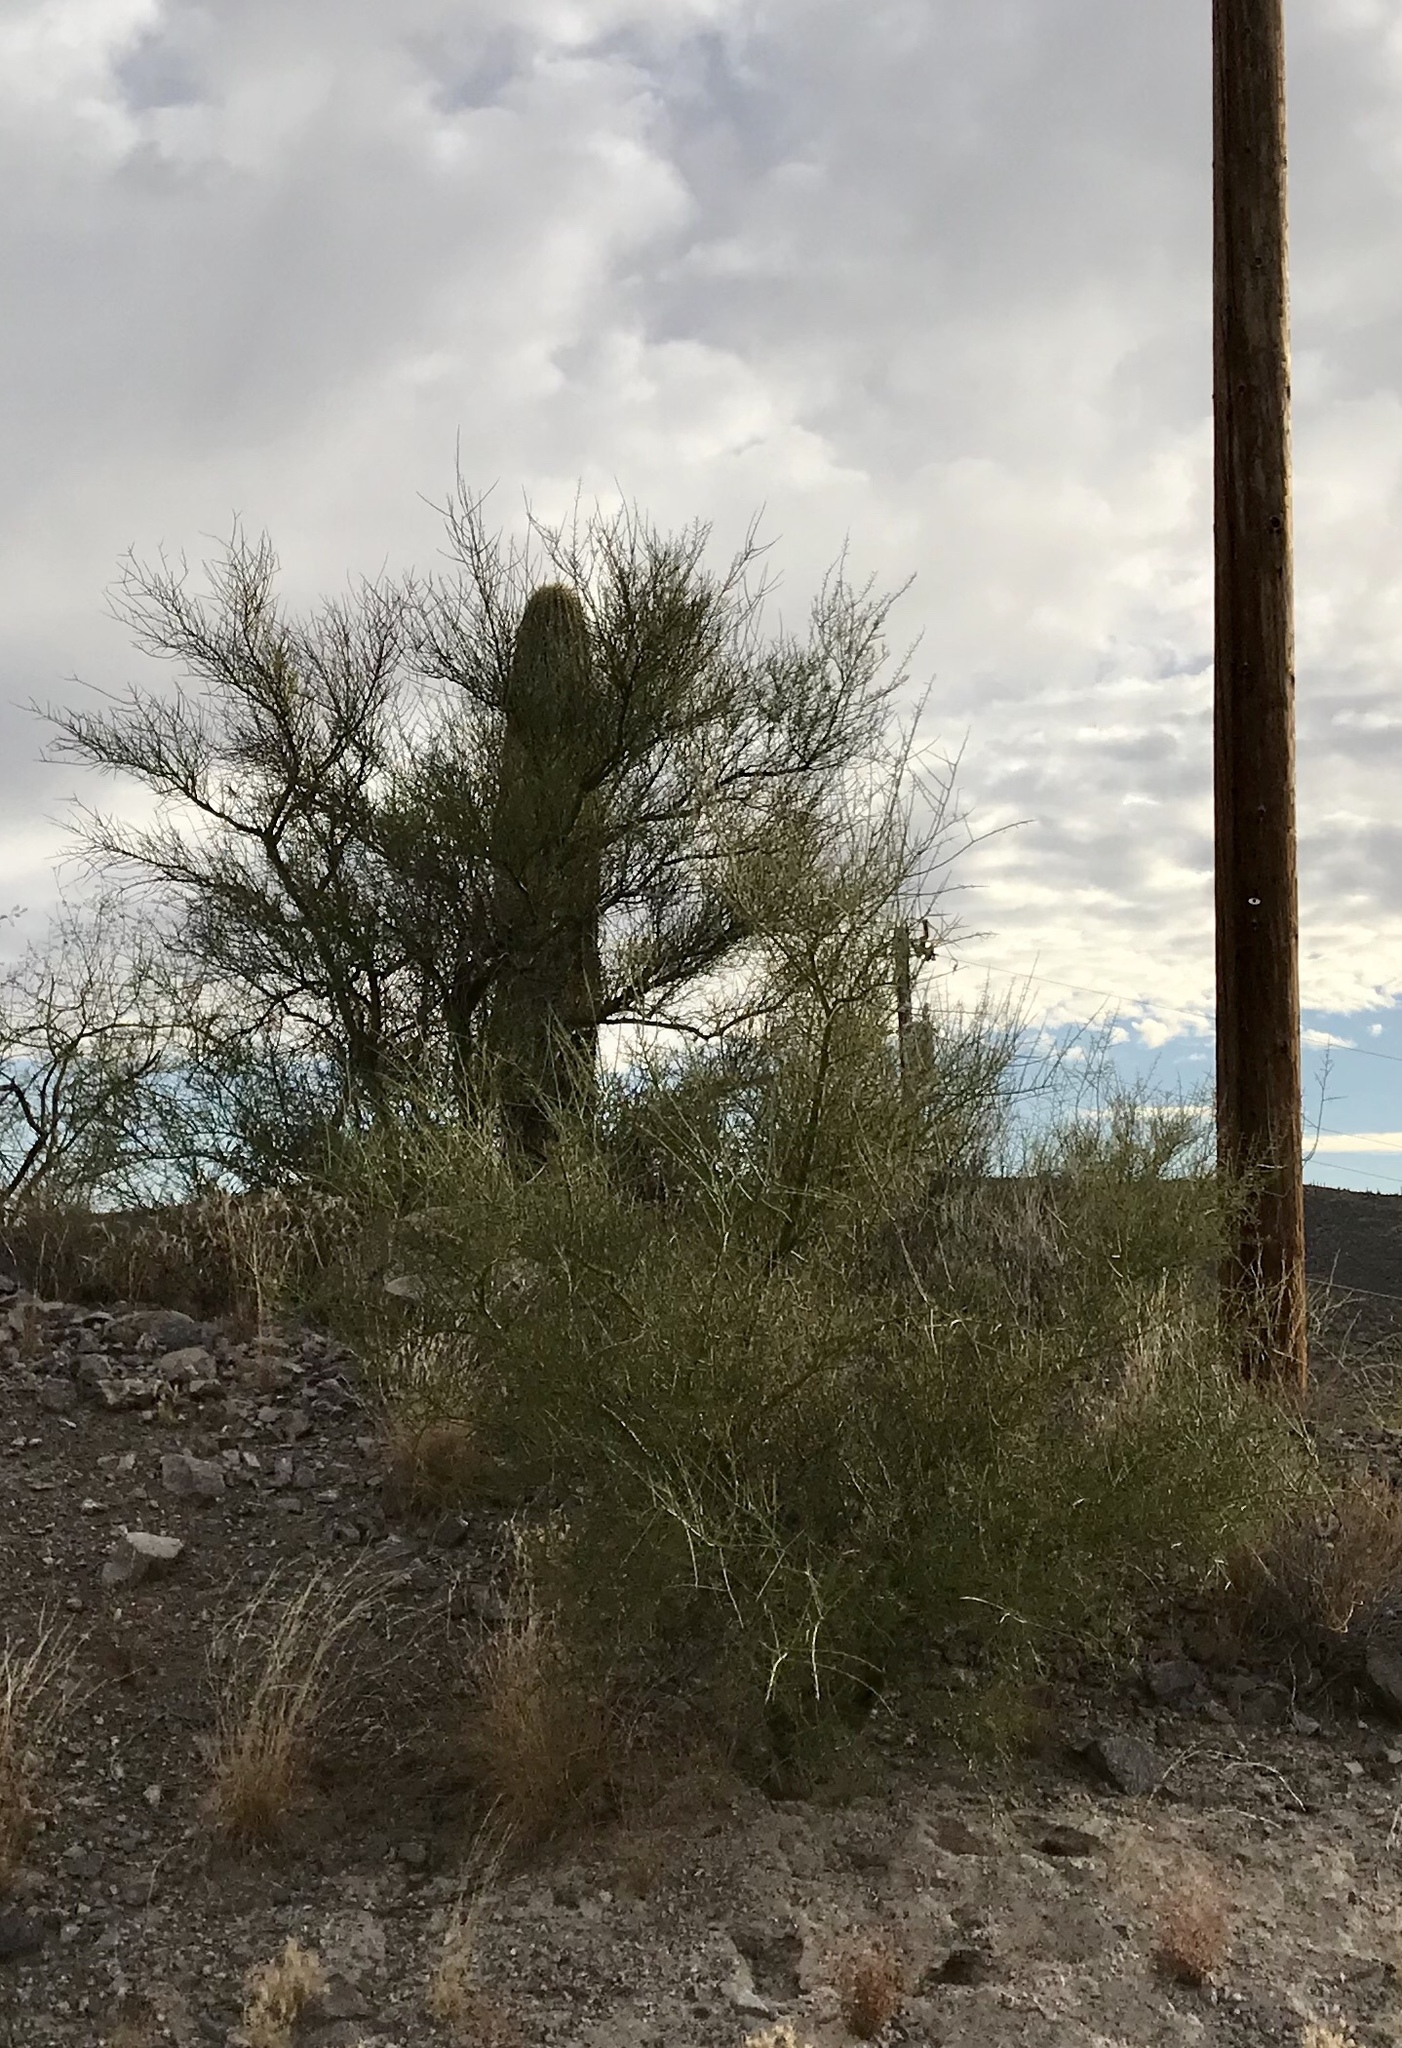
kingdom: Plantae
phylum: Tracheophyta
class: Magnoliopsida
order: Fabales
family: Fabaceae
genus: Parkinsonia
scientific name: Parkinsonia microphylla
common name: Yellow paloverde
